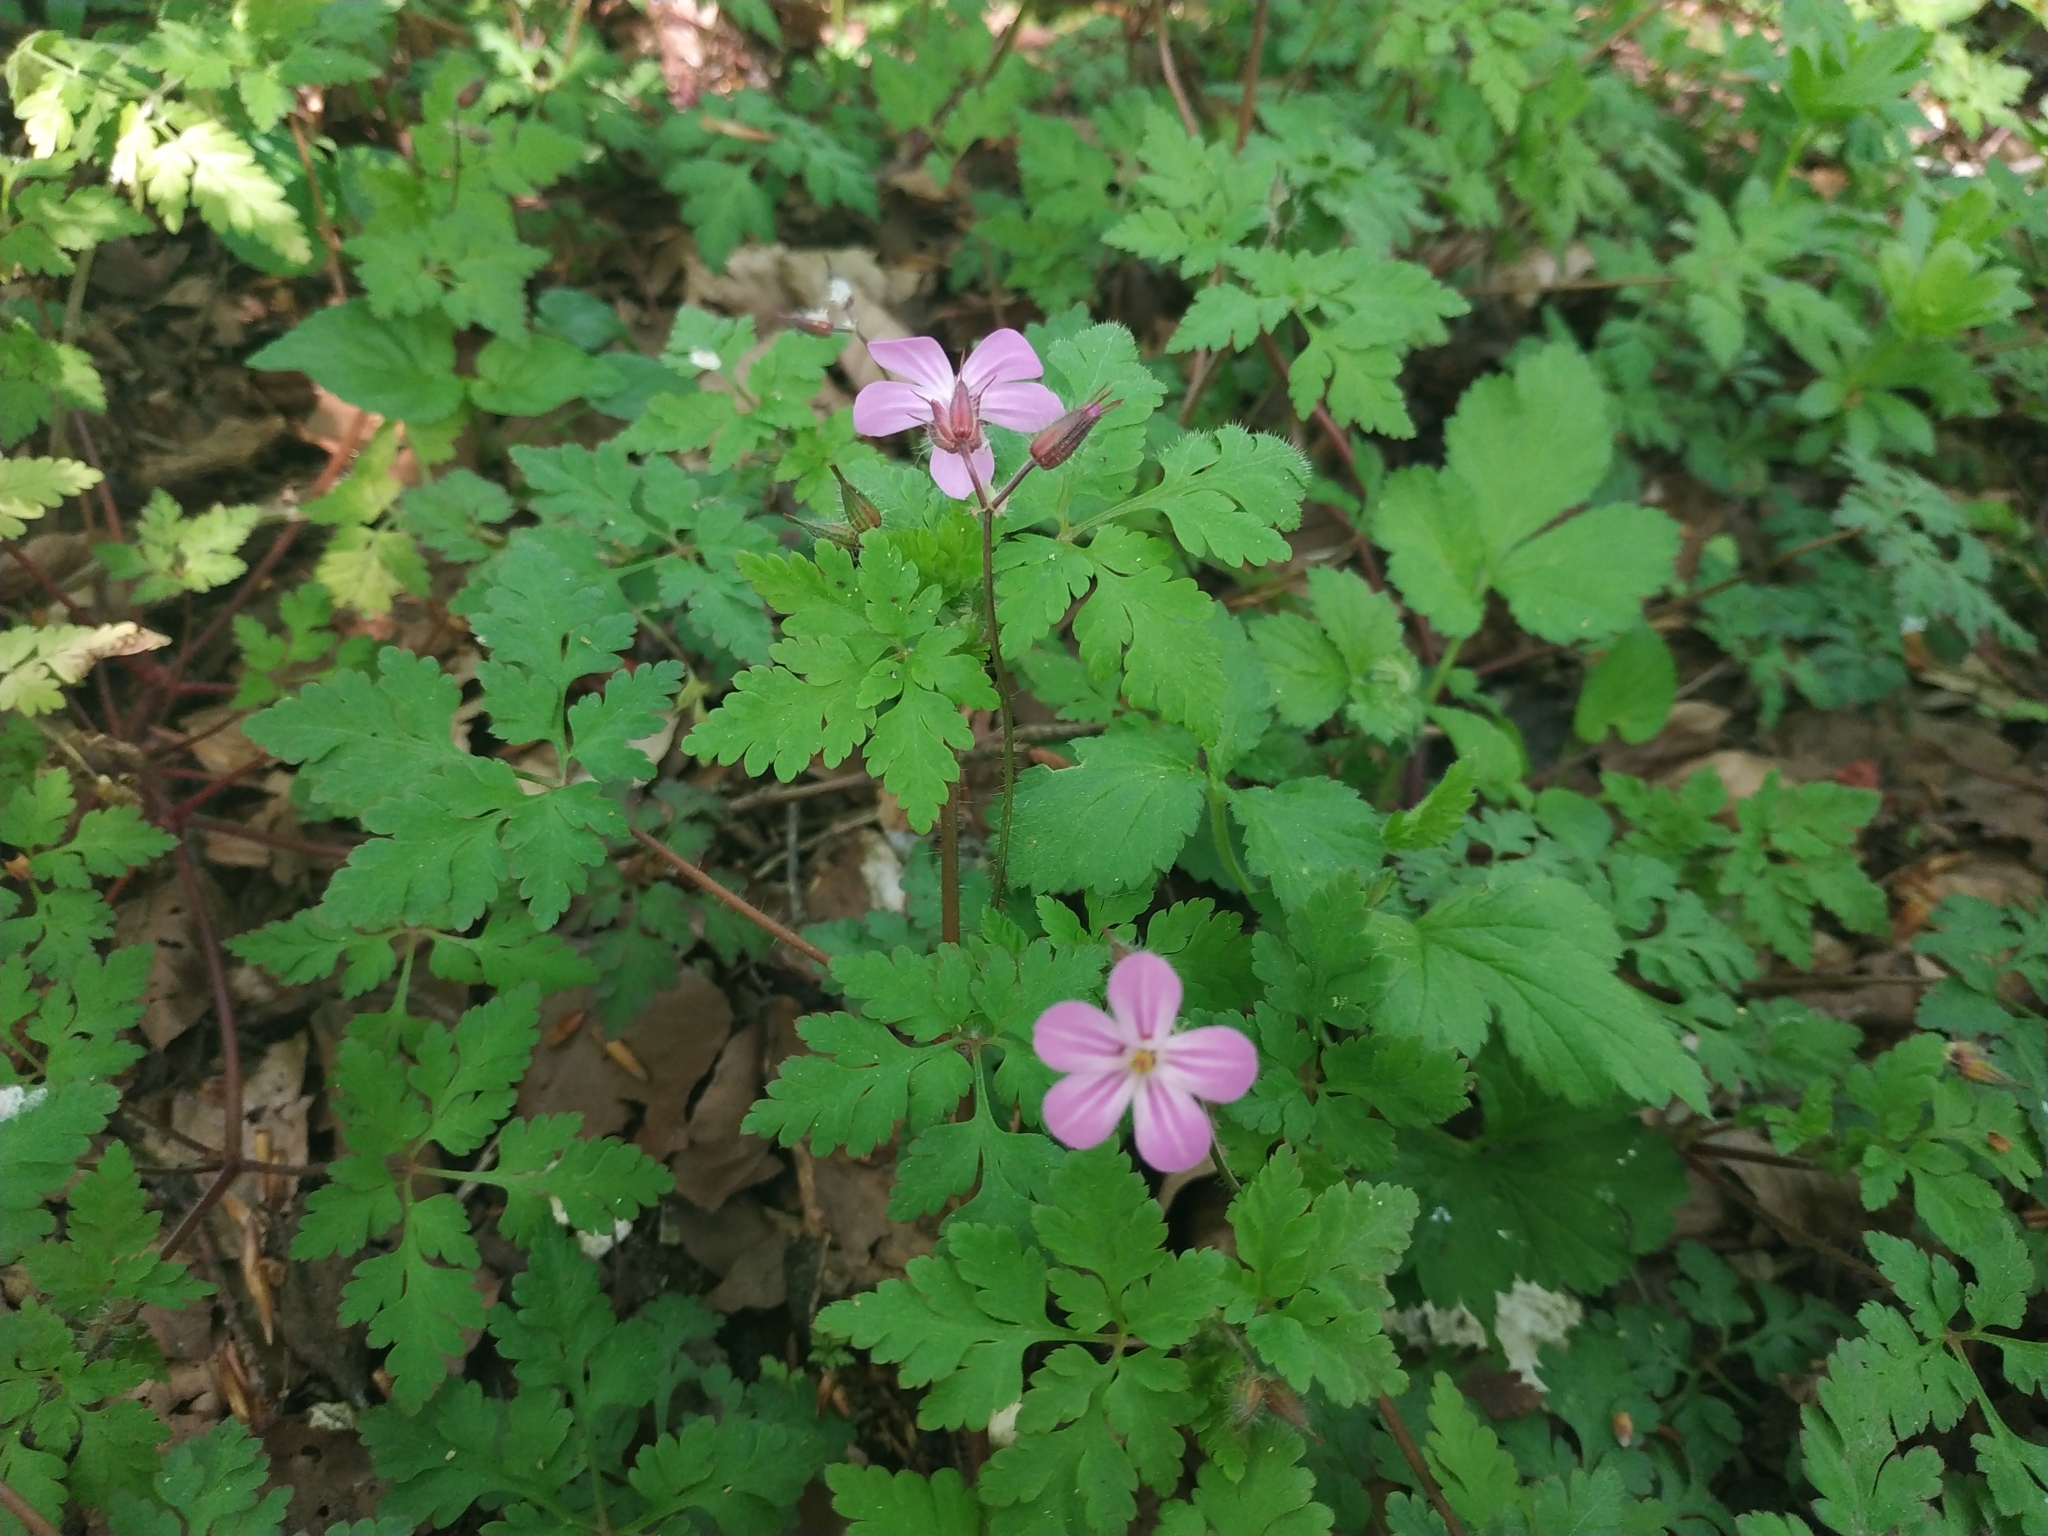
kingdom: Plantae
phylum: Tracheophyta
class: Magnoliopsida
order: Geraniales
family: Geraniaceae
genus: Geranium
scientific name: Geranium robertianum
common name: Herb-robert
